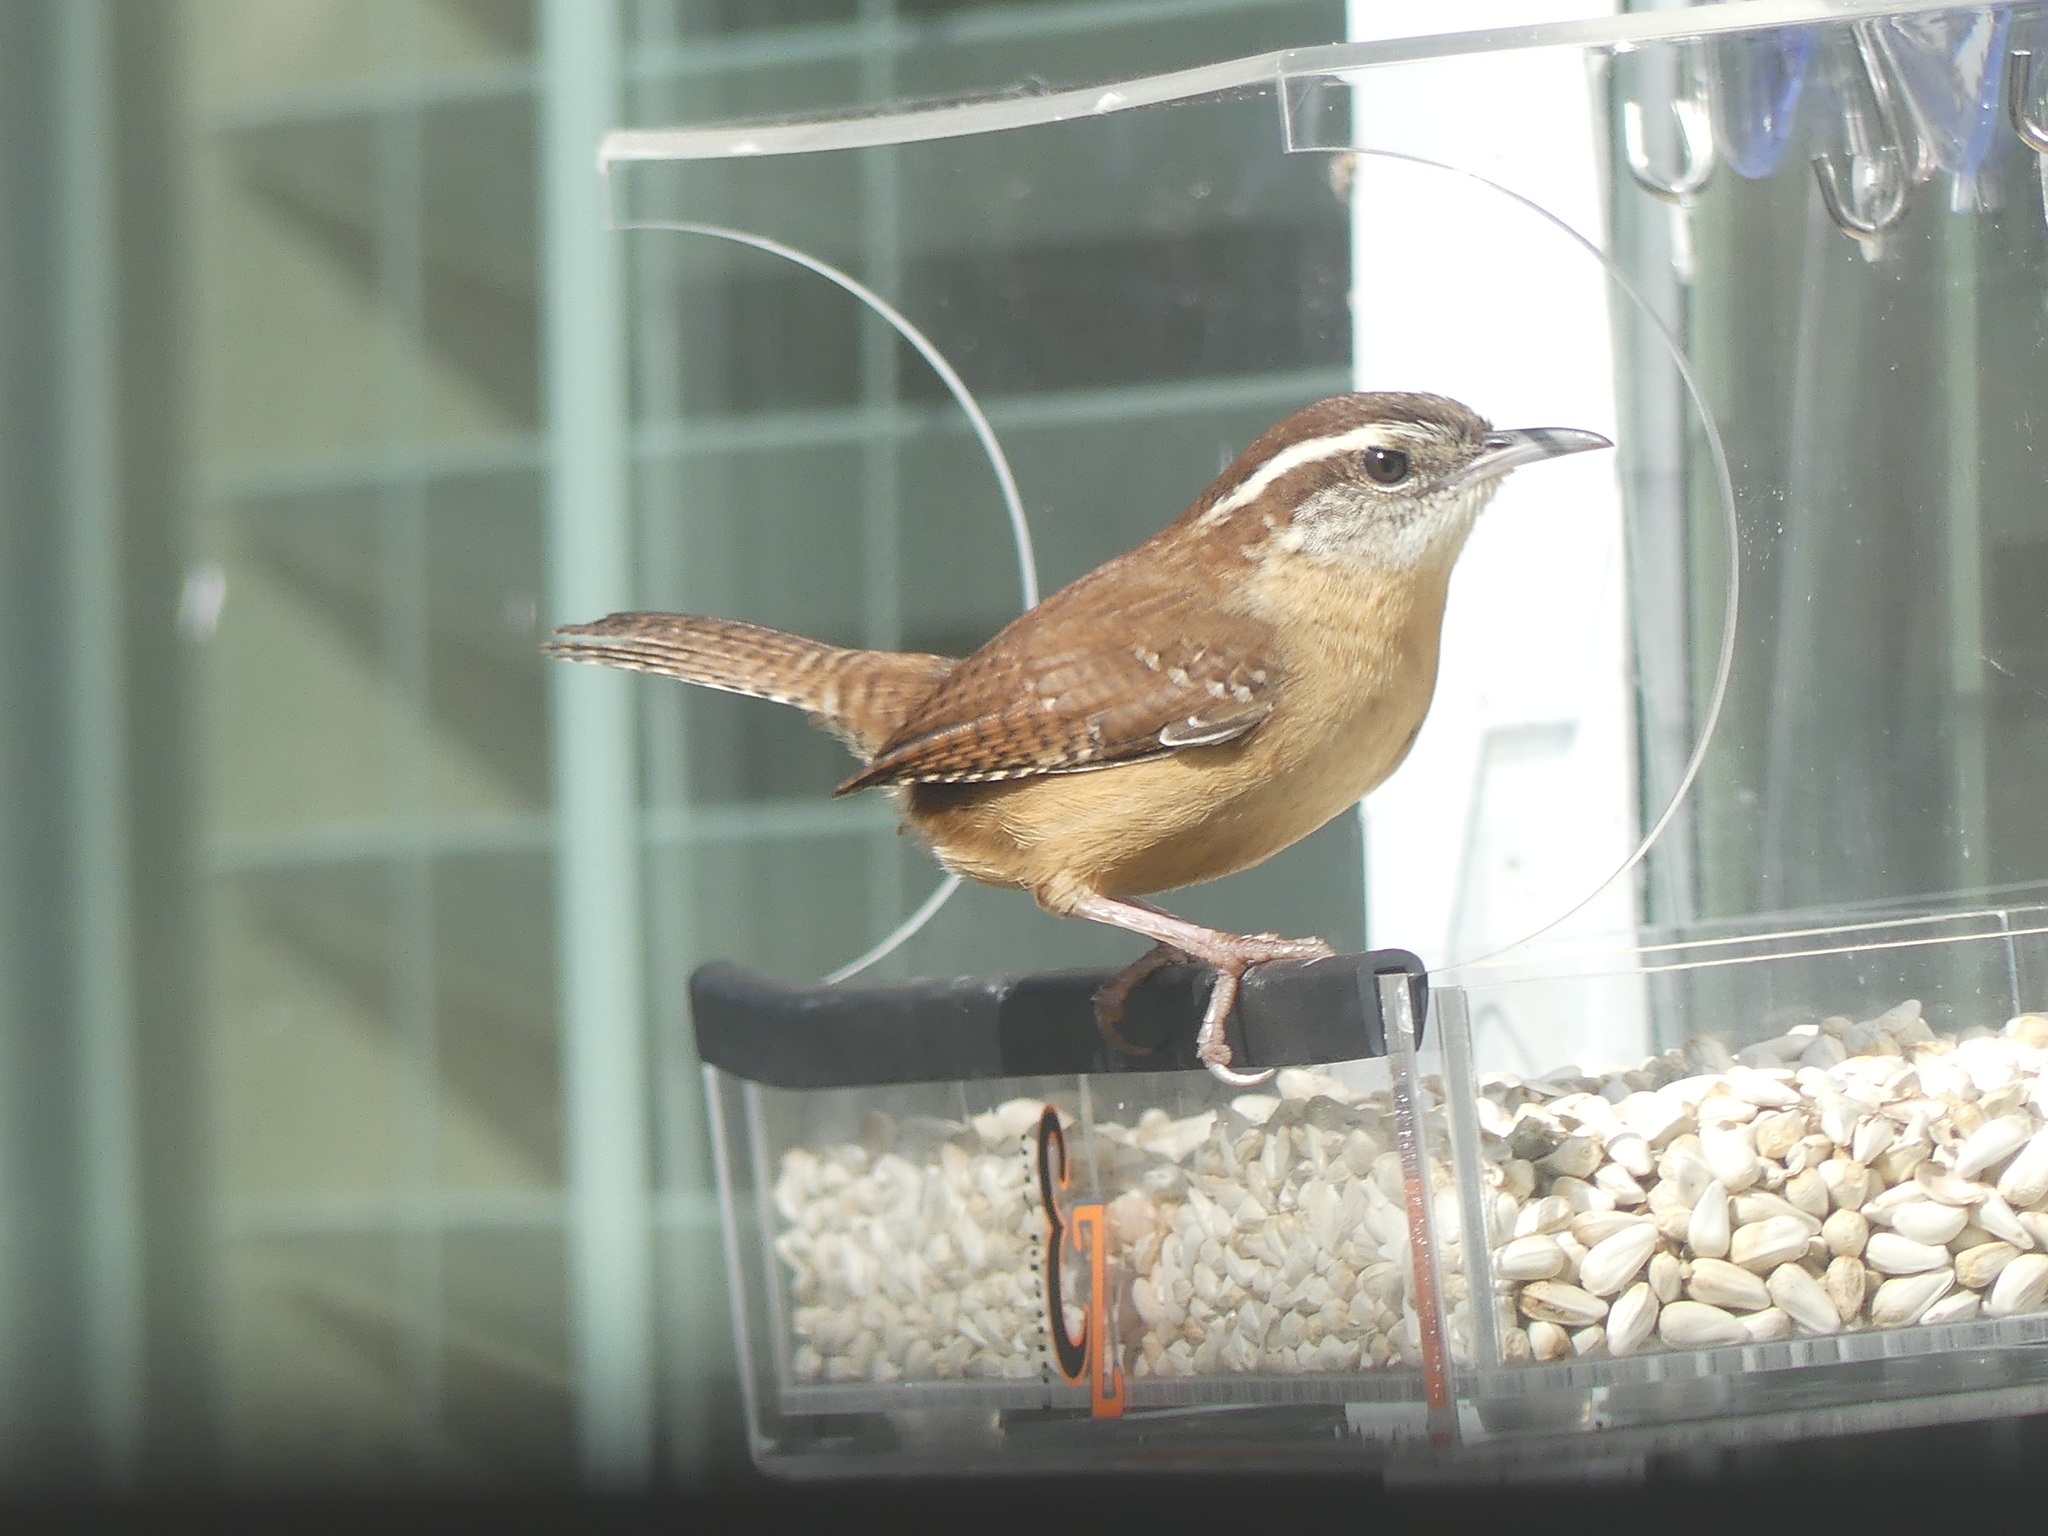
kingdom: Animalia
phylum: Chordata
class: Aves
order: Passeriformes
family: Troglodytidae
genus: Thryothorus
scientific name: Thryothorus ludovicianus
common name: Carolina wren
